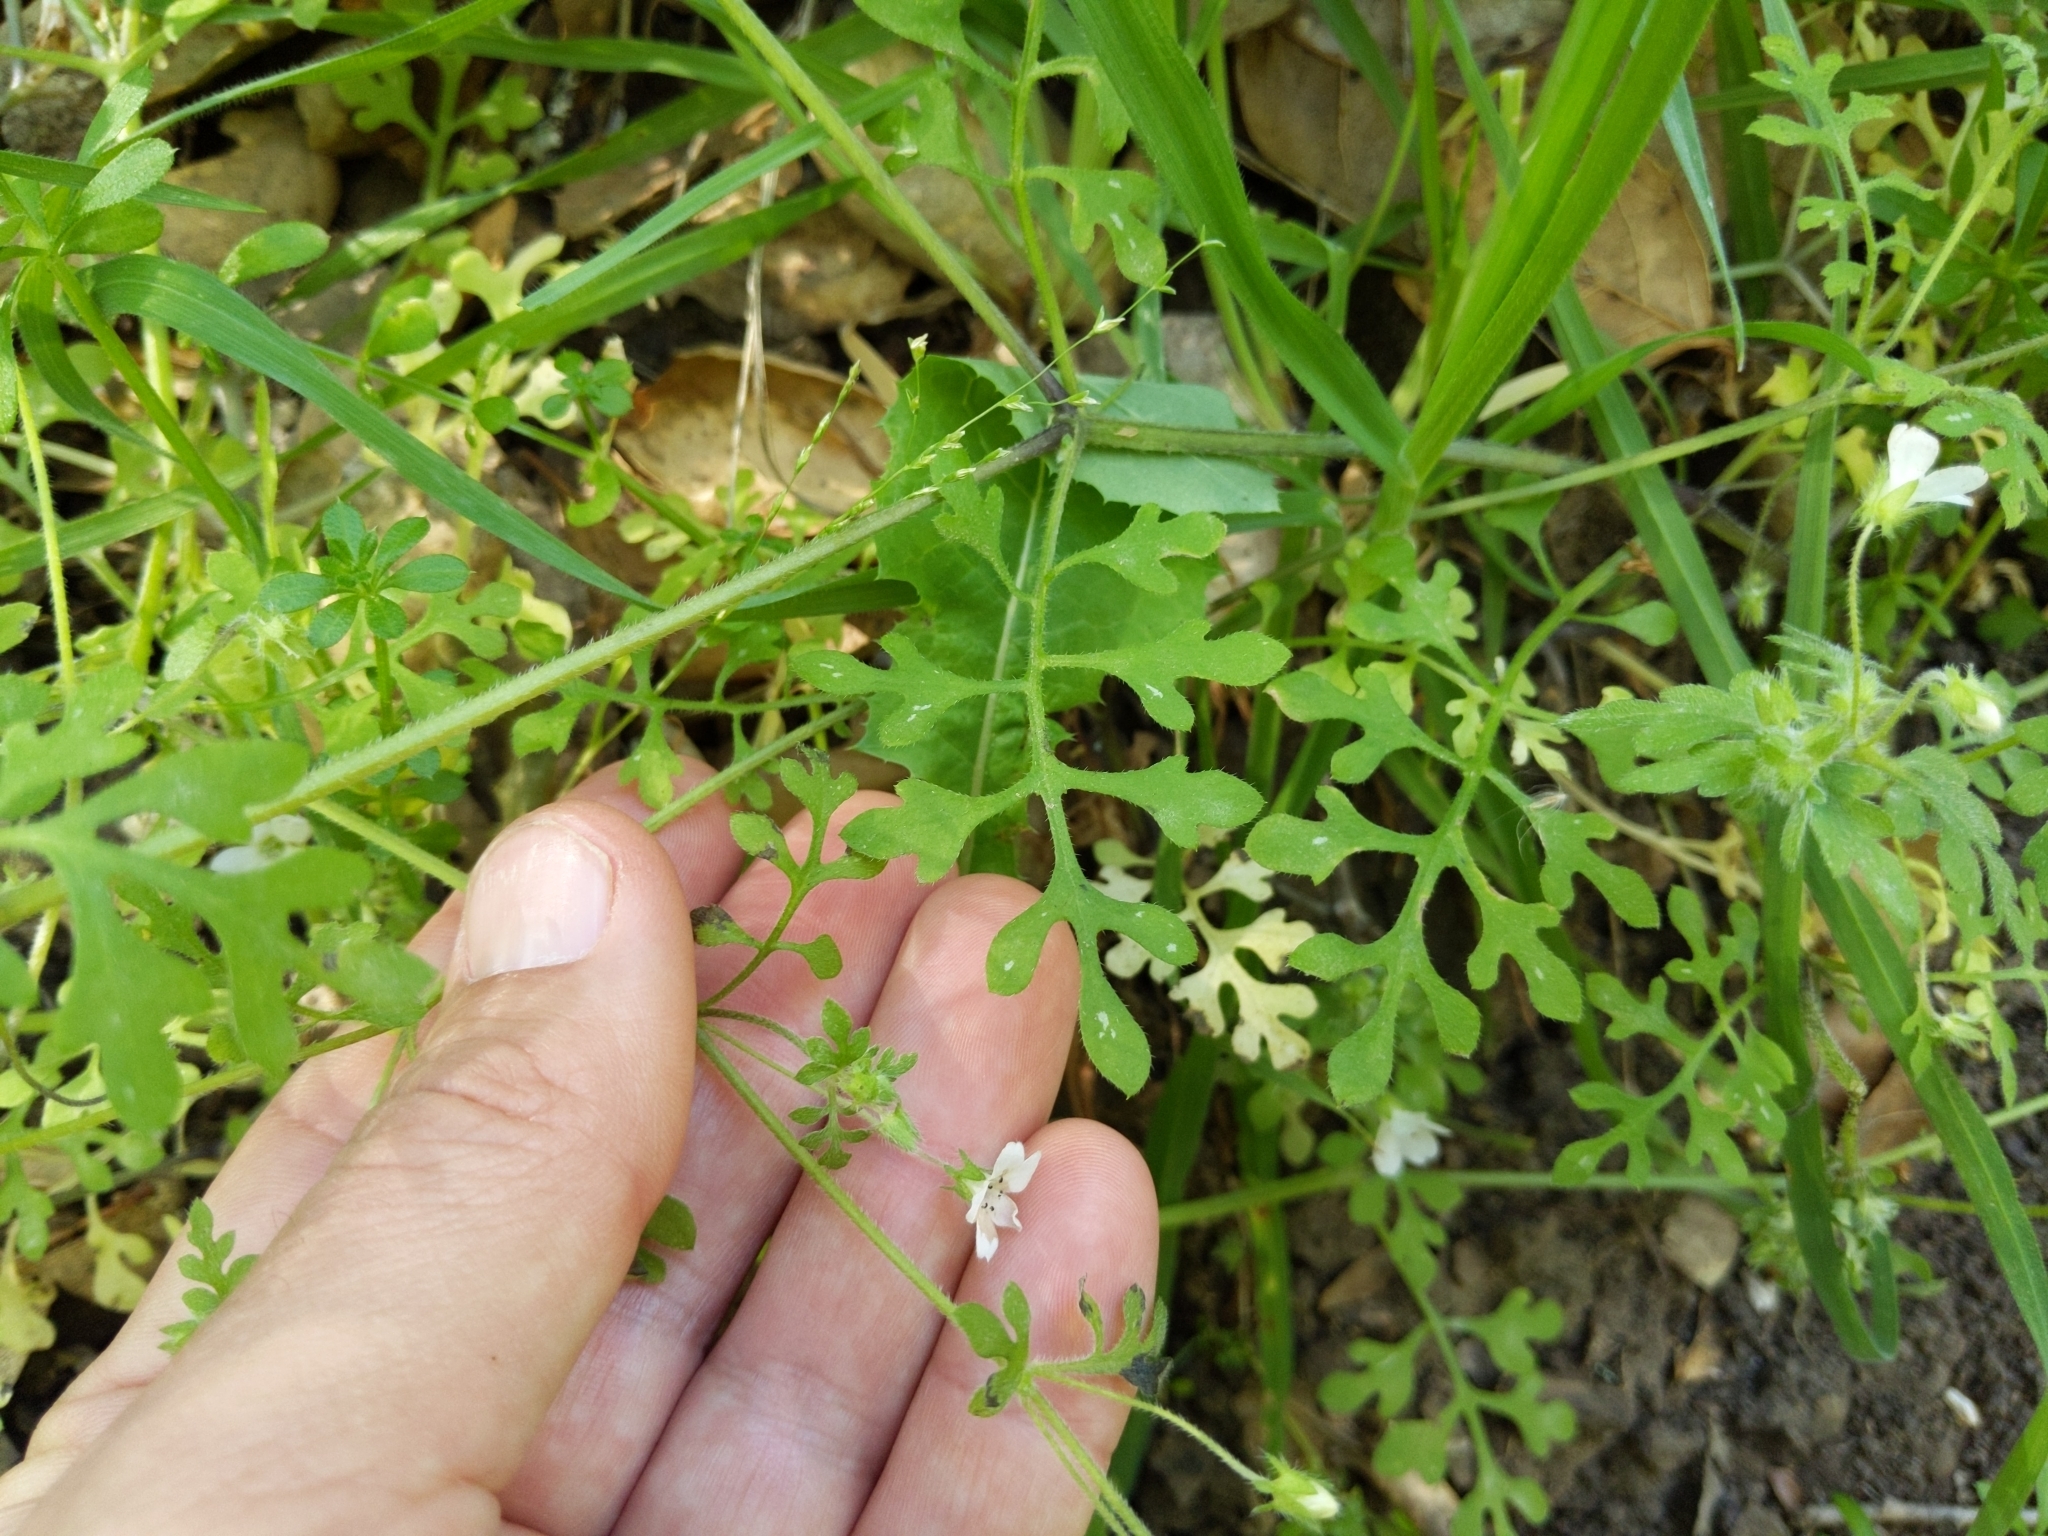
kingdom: Plantae
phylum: Tracheophyta
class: Magnoliopsida
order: Boraginales
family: Hydrophyllaceae
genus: Nemophila
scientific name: Nemophila heterophylla
